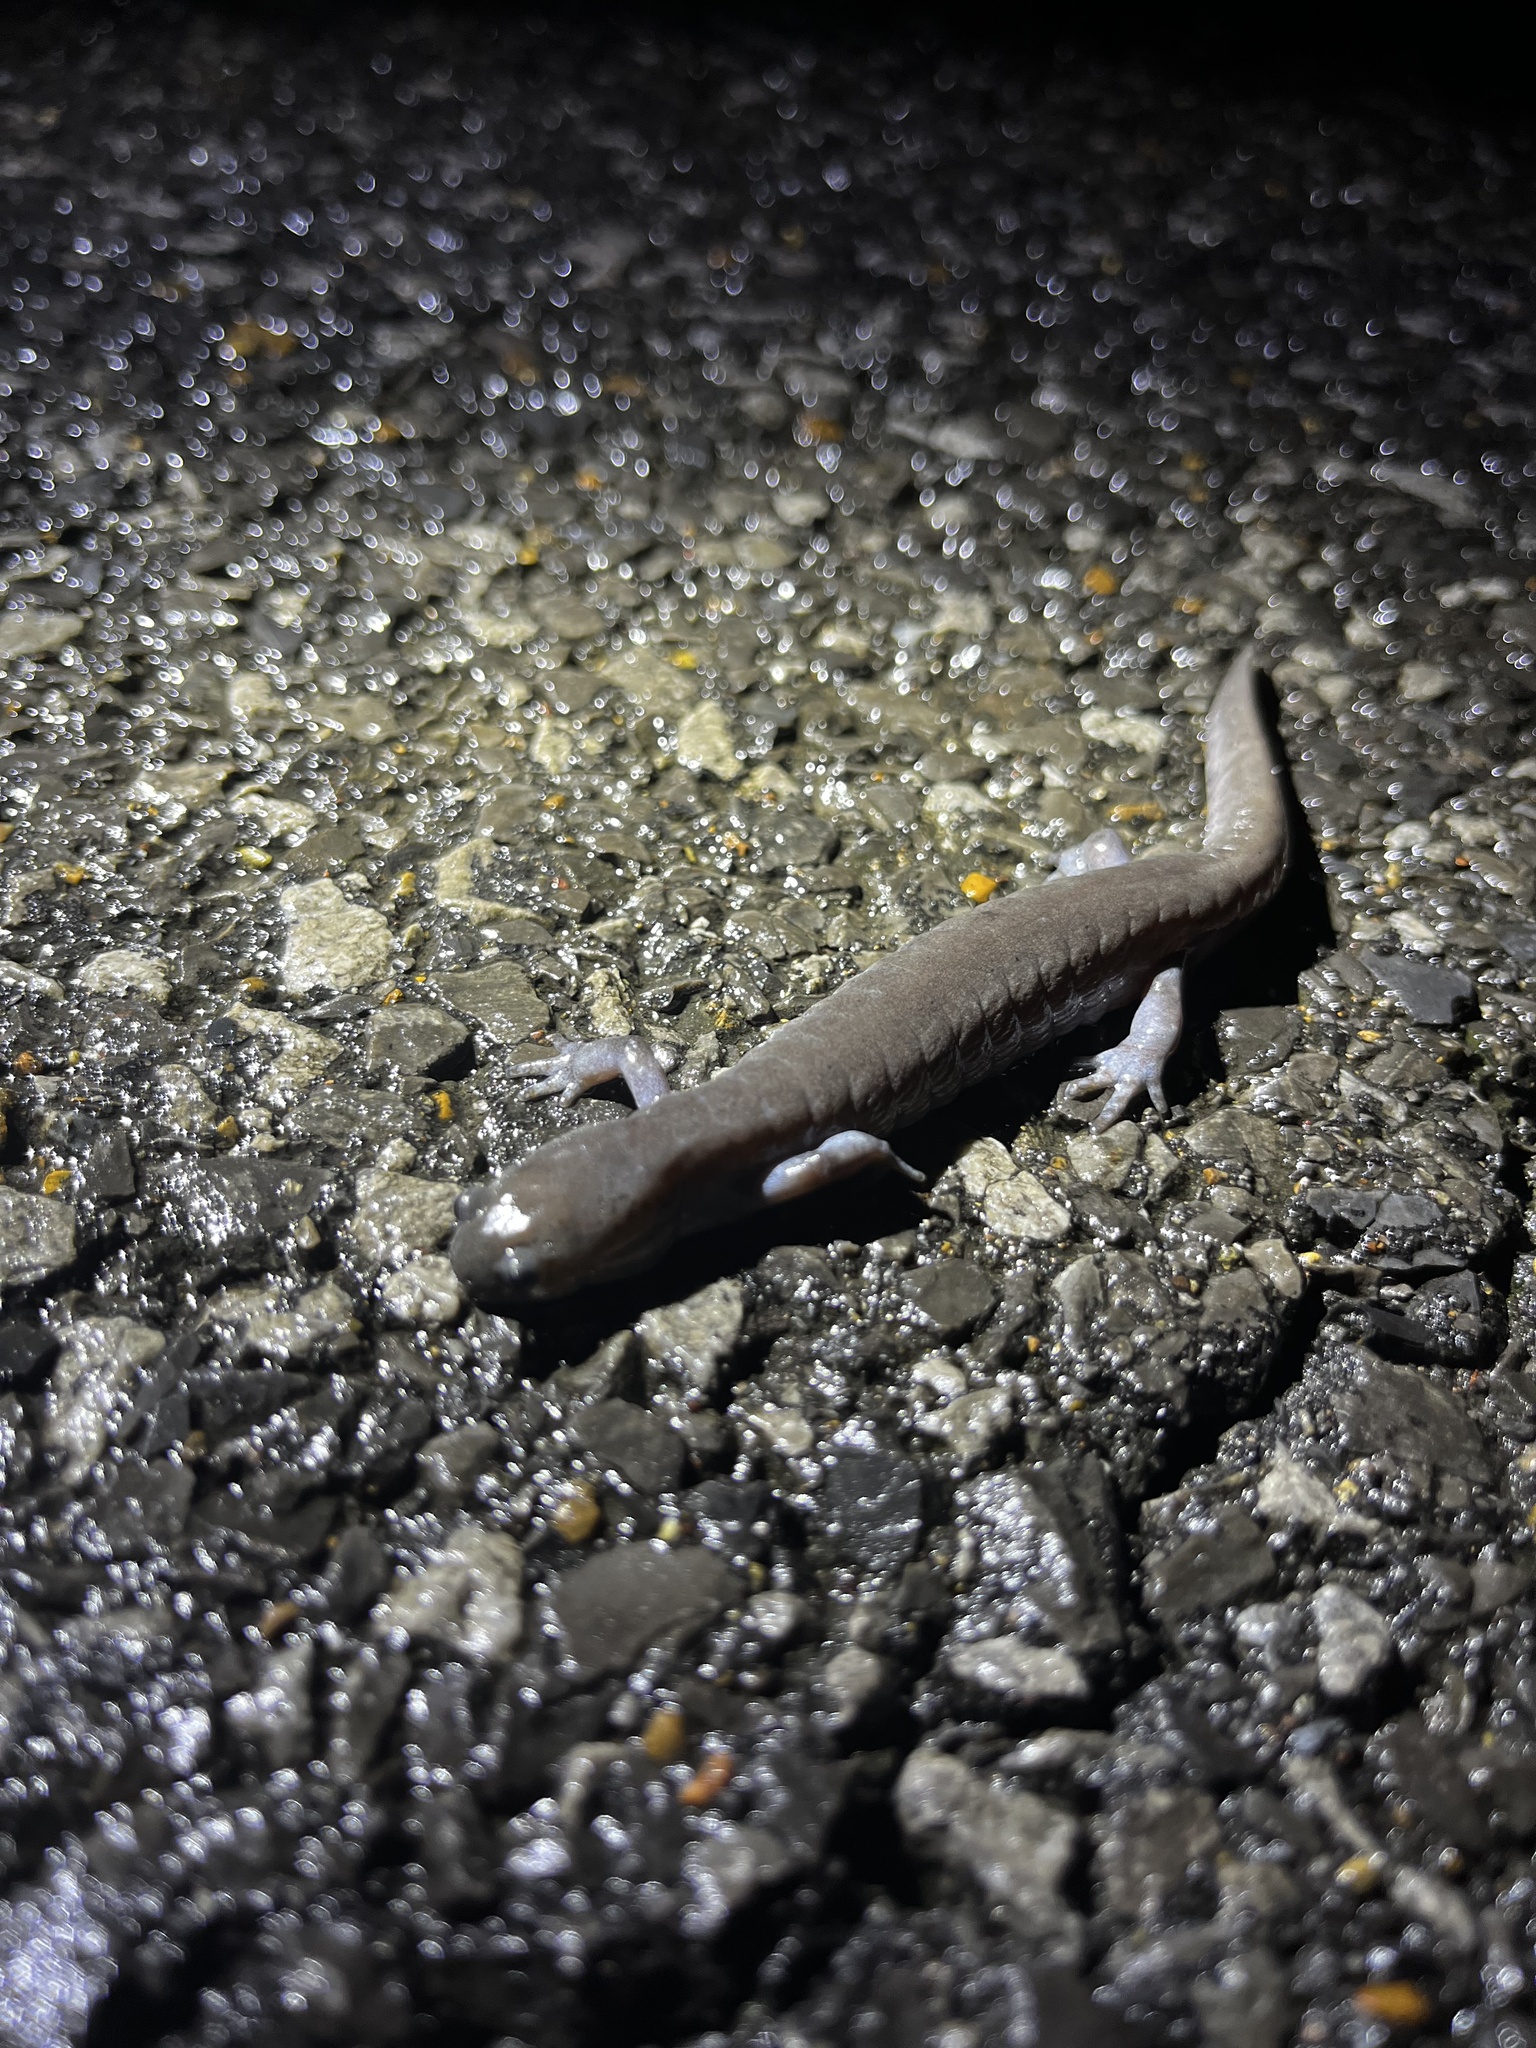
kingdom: Animalia
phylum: Chordata
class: Amphibia
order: Caudata
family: Ambystomatidae
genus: Ambystoma
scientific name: Ambystoma texanum
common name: Small-mouth salamander
